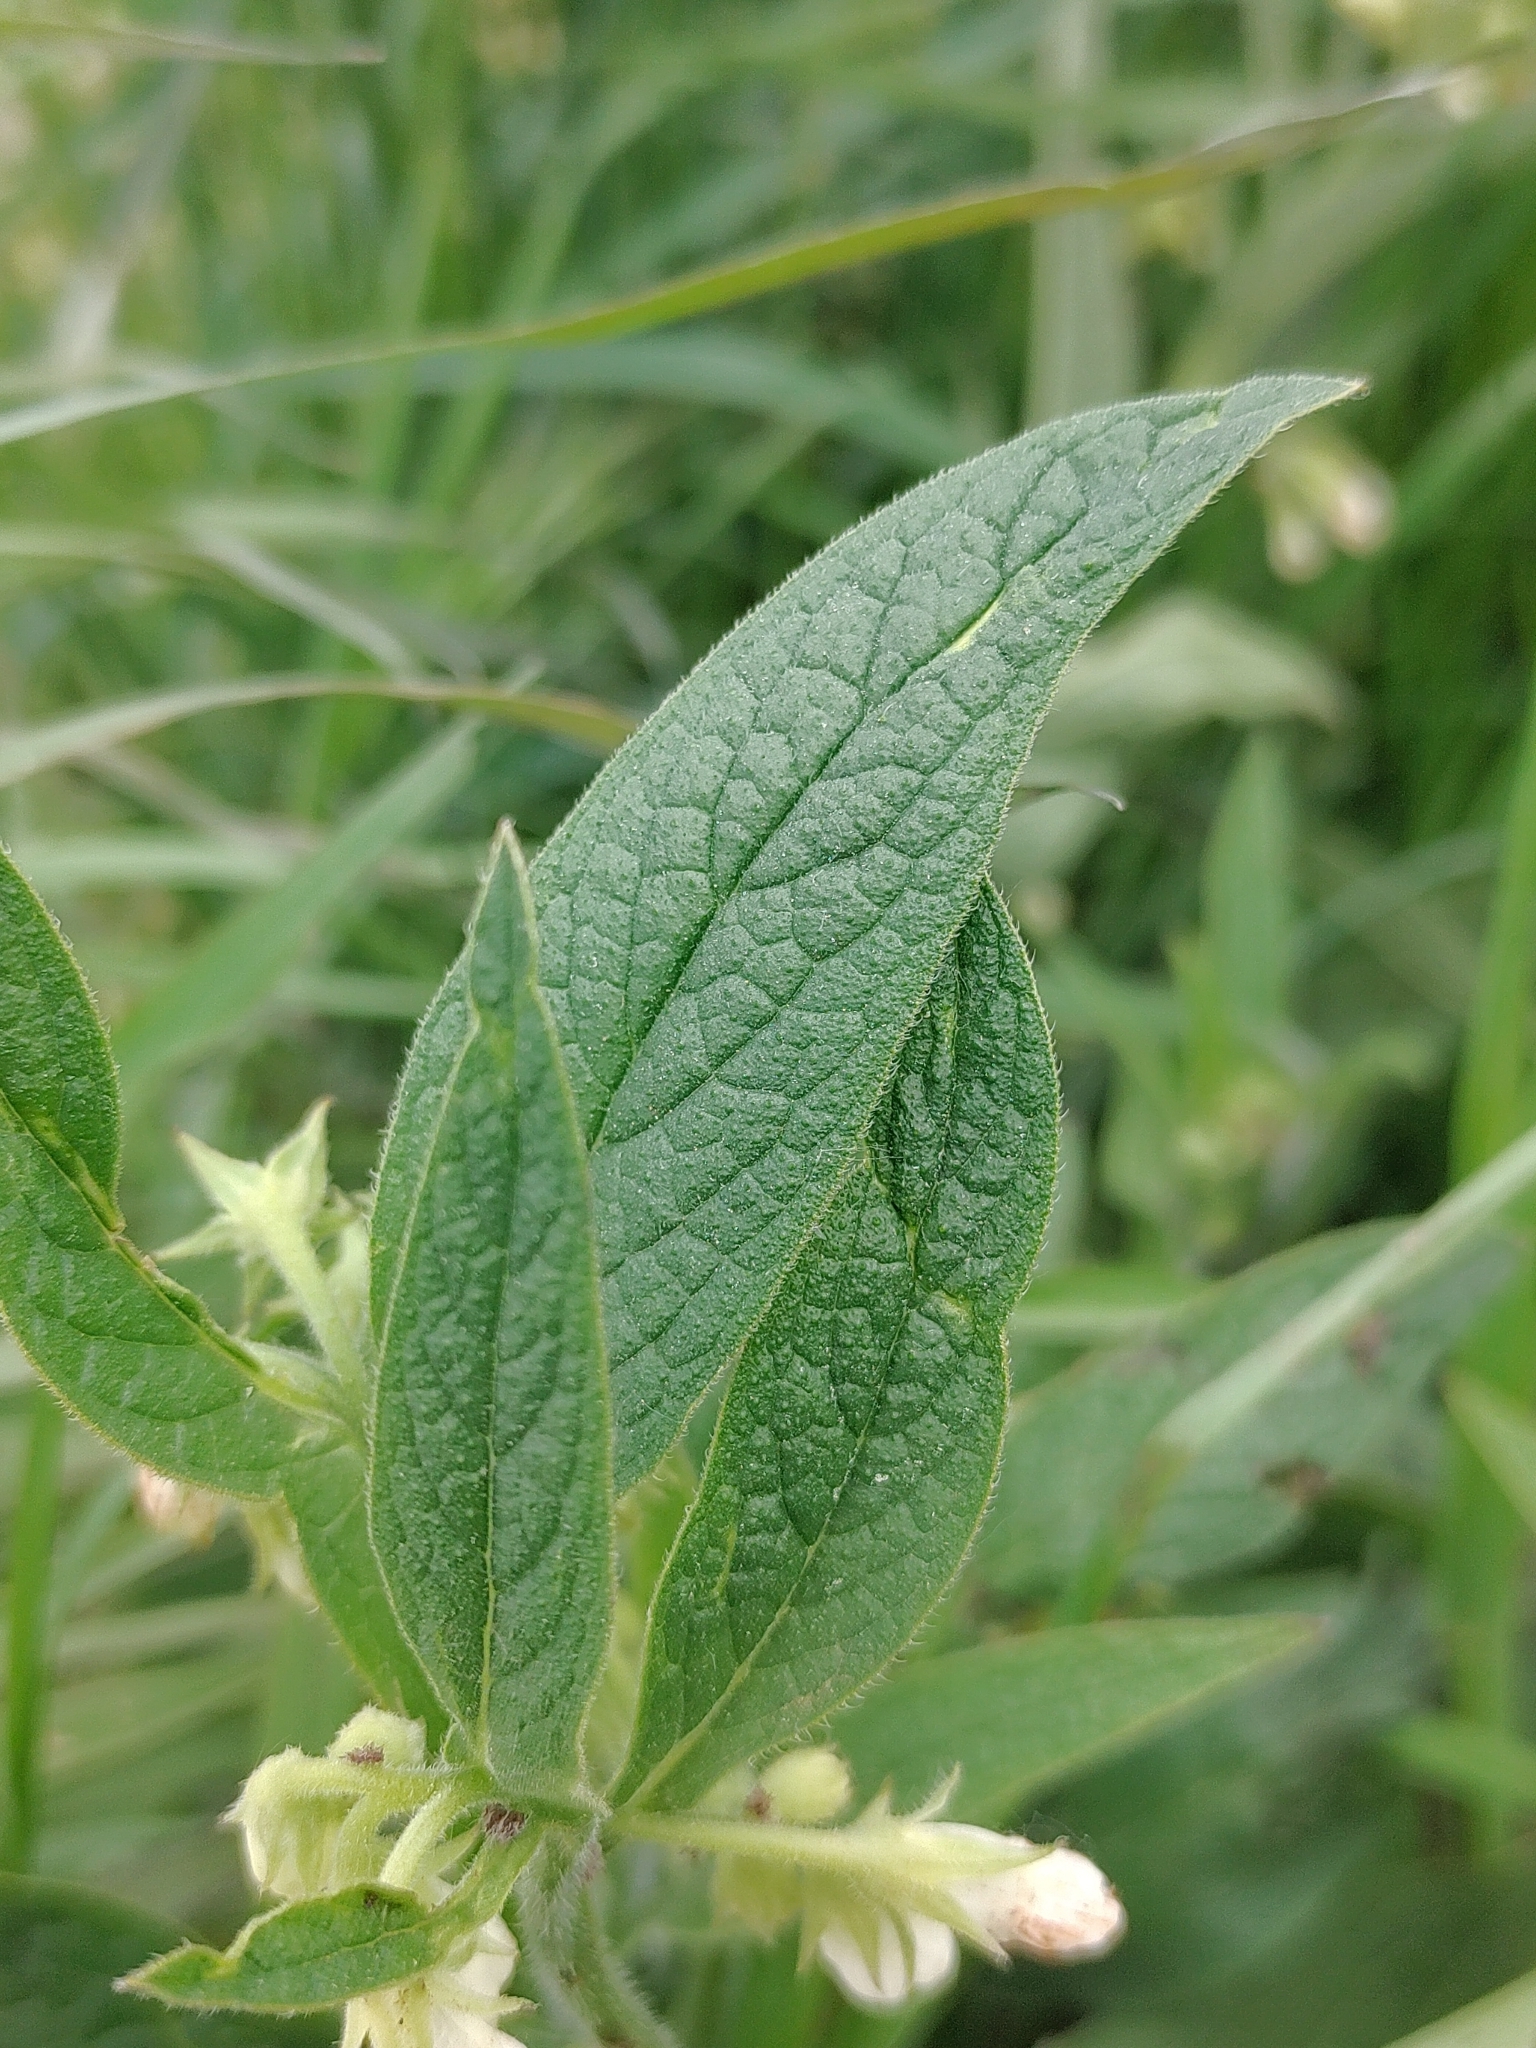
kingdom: Plantae
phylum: Tracheophyta
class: Magnoliopsida
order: Boraginales
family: Boraginaceae
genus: Symphytum
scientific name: Symphytum officinale
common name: Common comfrey
